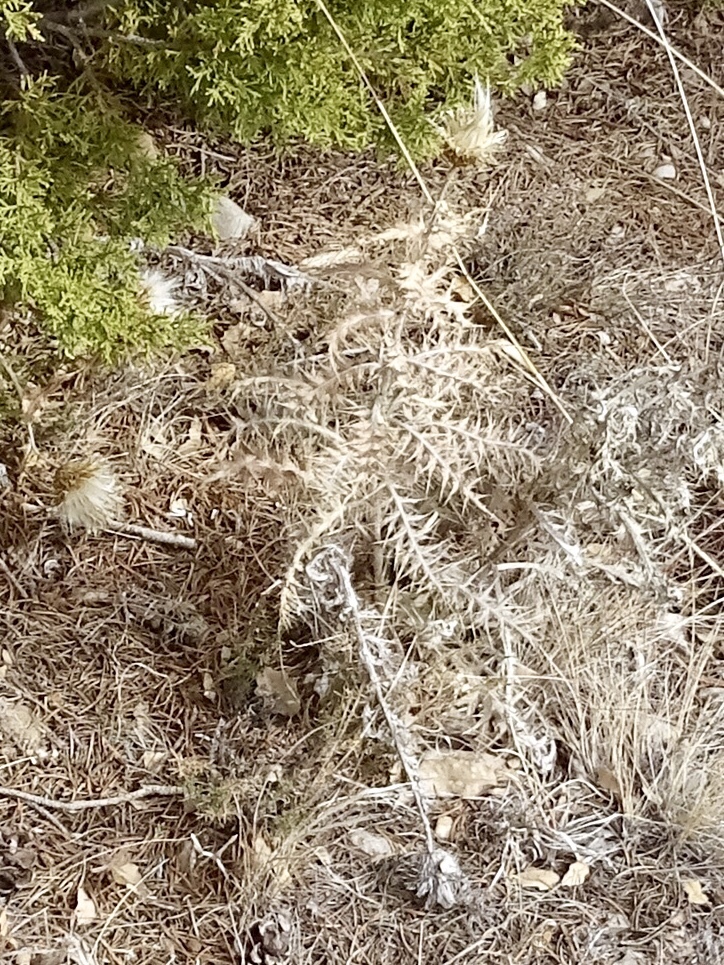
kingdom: Plantae
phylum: Tracheophyta
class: Magnoliopsida
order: Asterales
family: Asteraceae
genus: Cirsium
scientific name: Cirsium ochrocentrum
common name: Yellow-spine thistle
